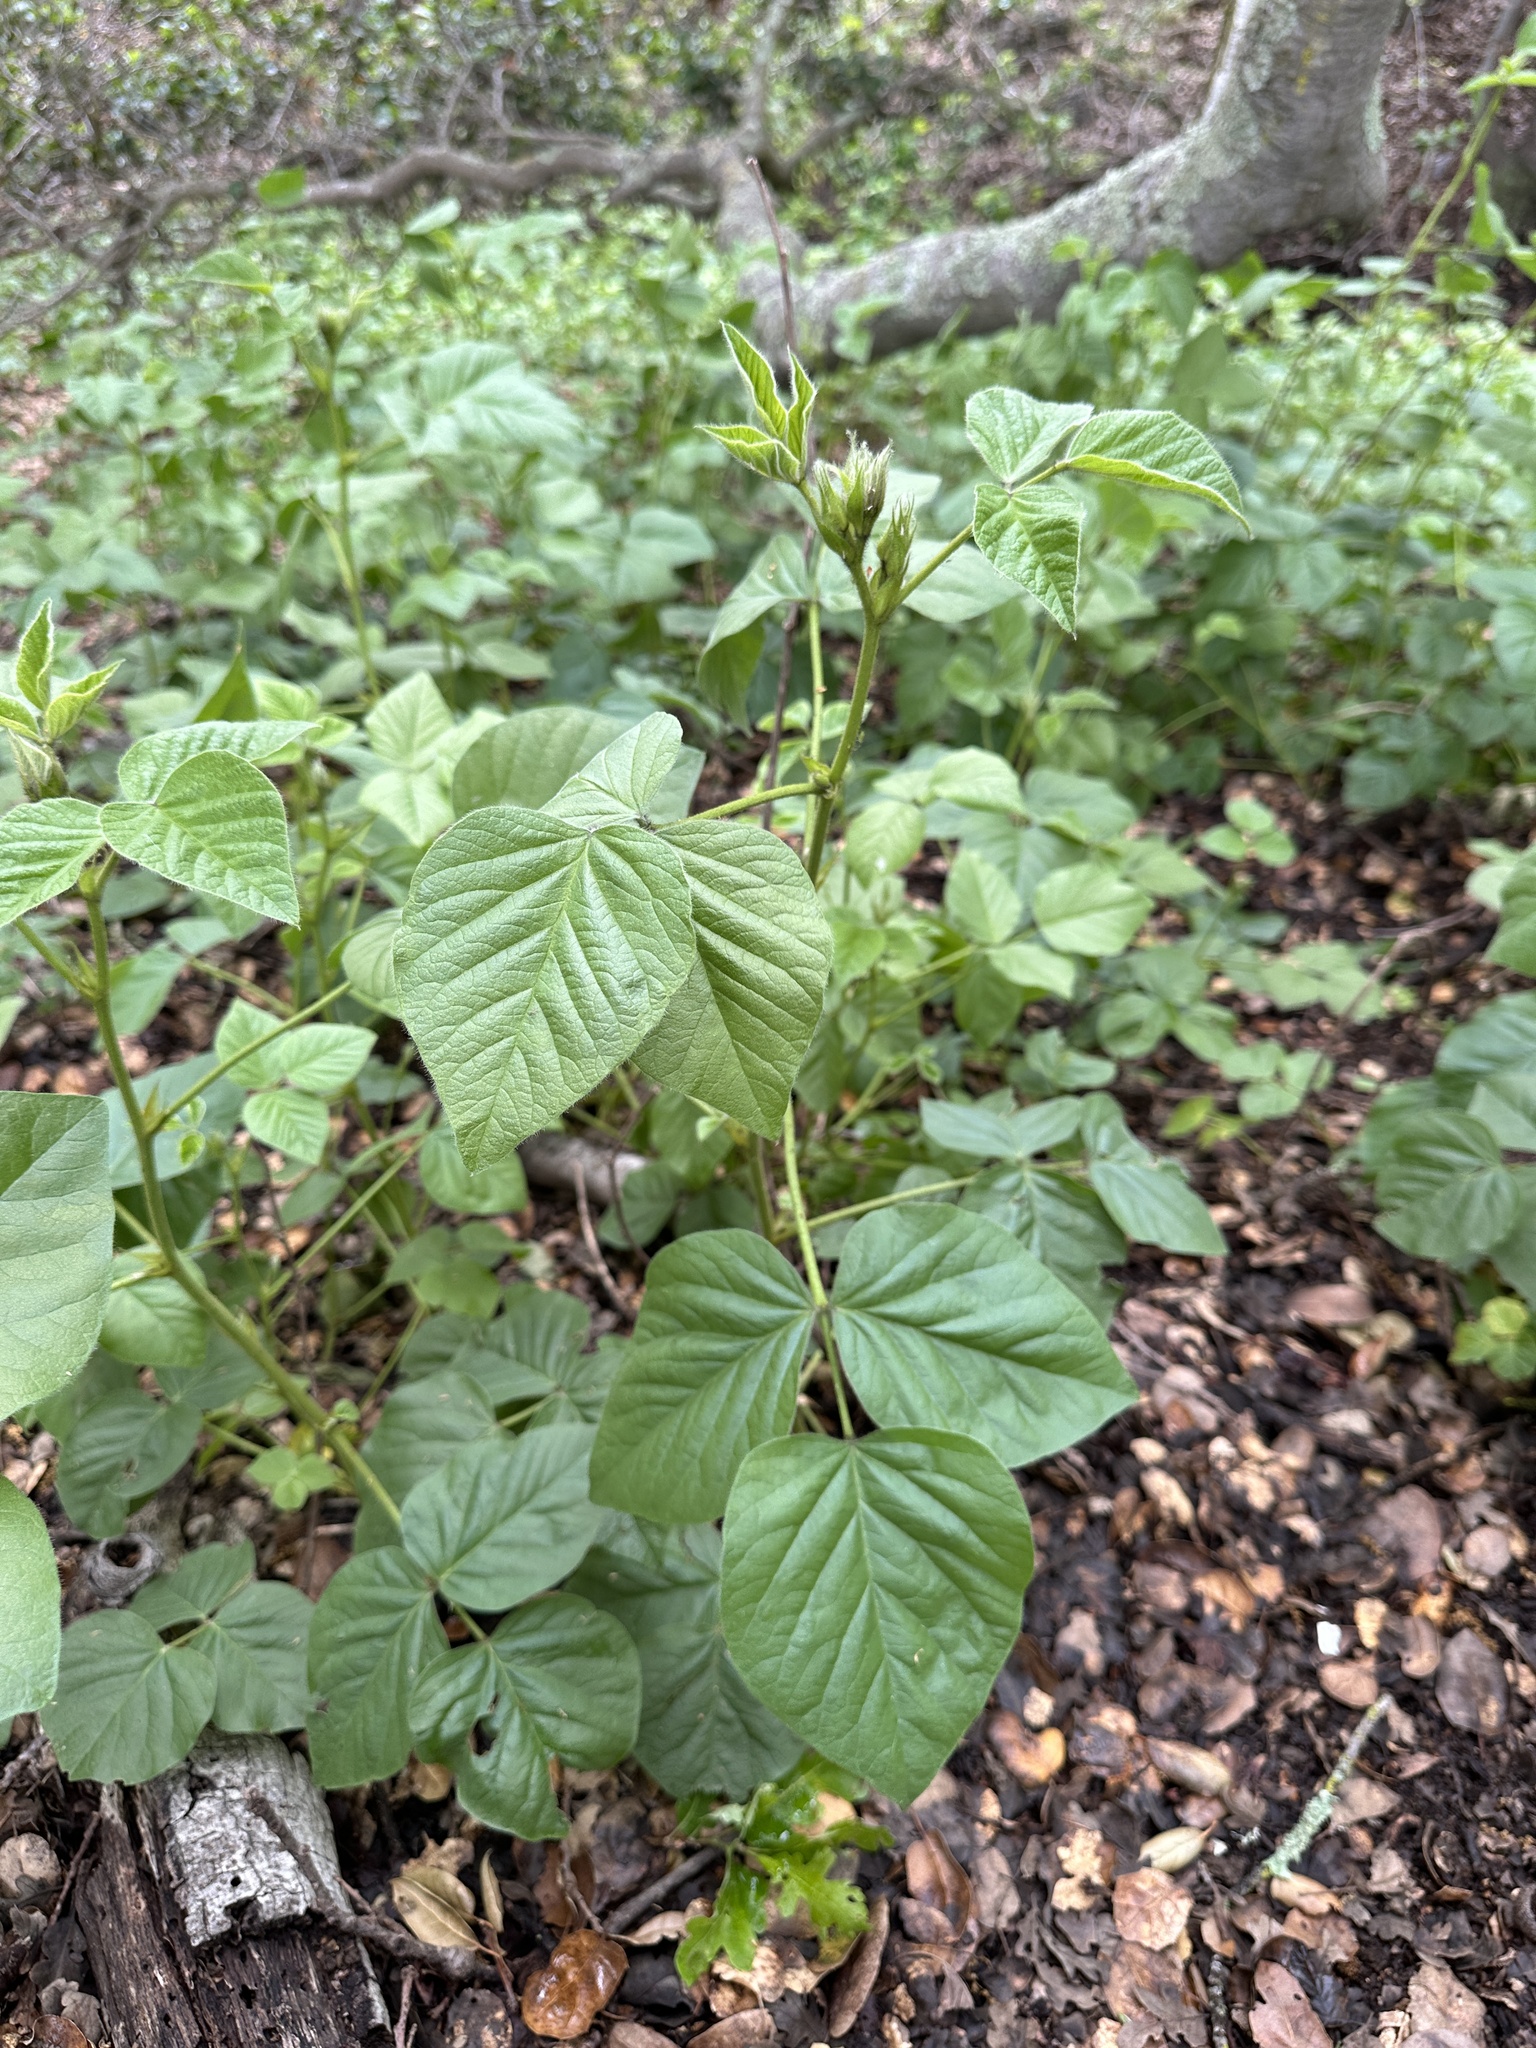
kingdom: Plantae
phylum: Tracheophyta
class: Magnoliopsida
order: Fabales
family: Fabaceae
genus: Hoita
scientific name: Hoita strobilina
